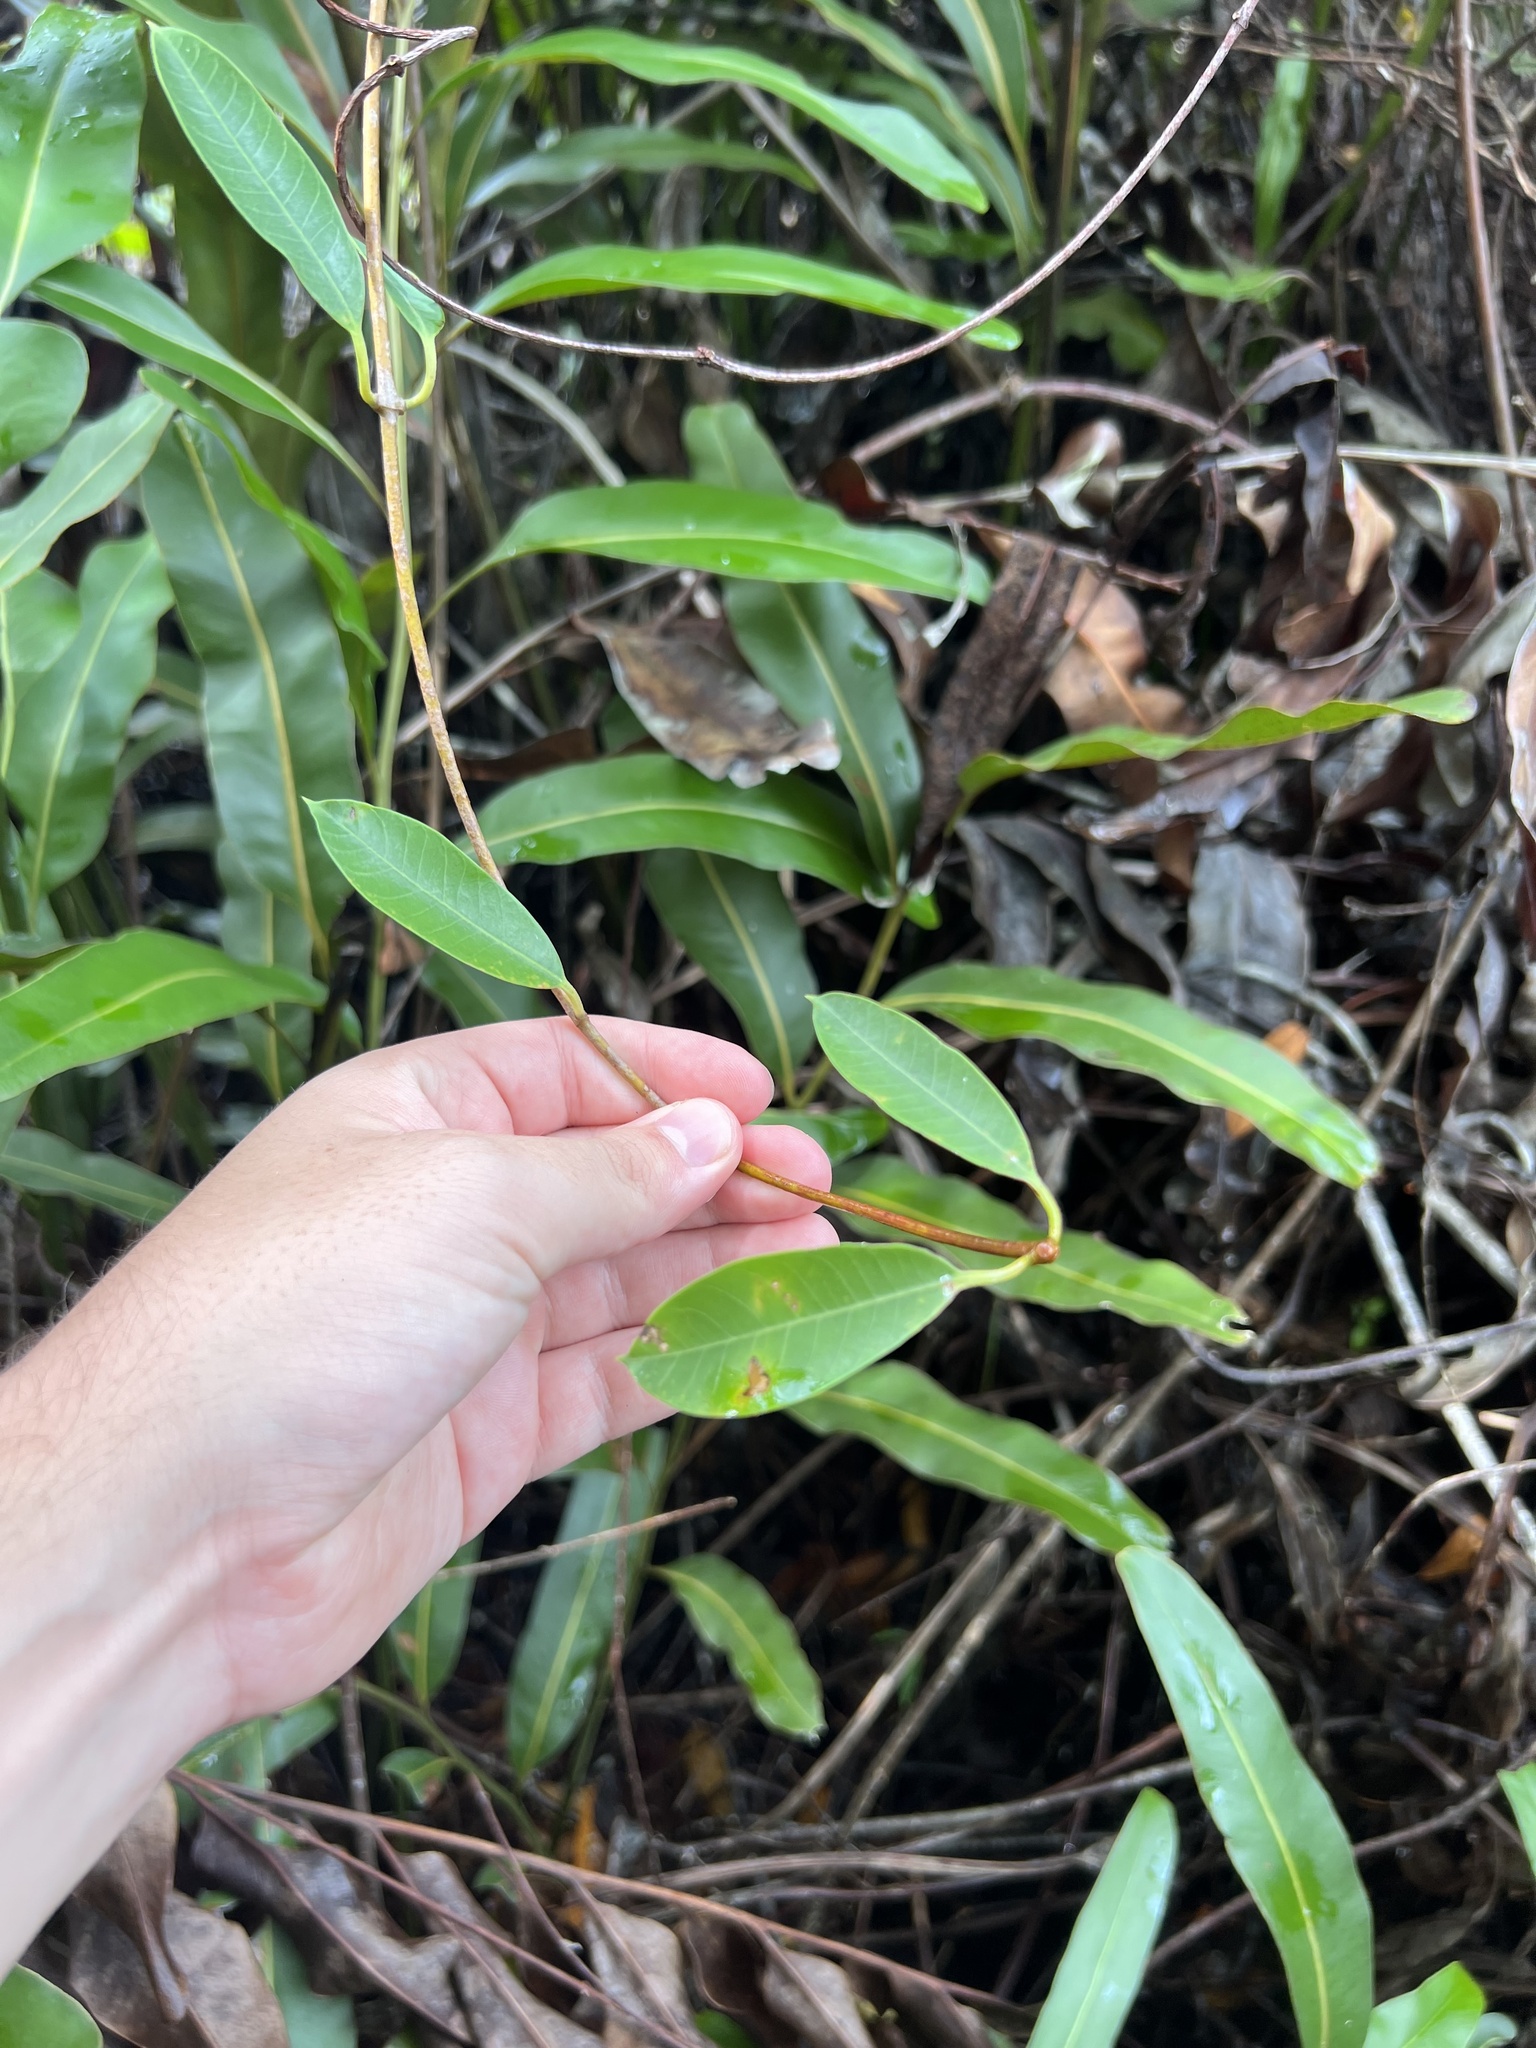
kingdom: Plantae
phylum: Tracheophyta
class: Magnoliopsida
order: Gentianales
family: Apocynaceae
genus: Rhabdadenia
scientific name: Rhabdadenia biflora
